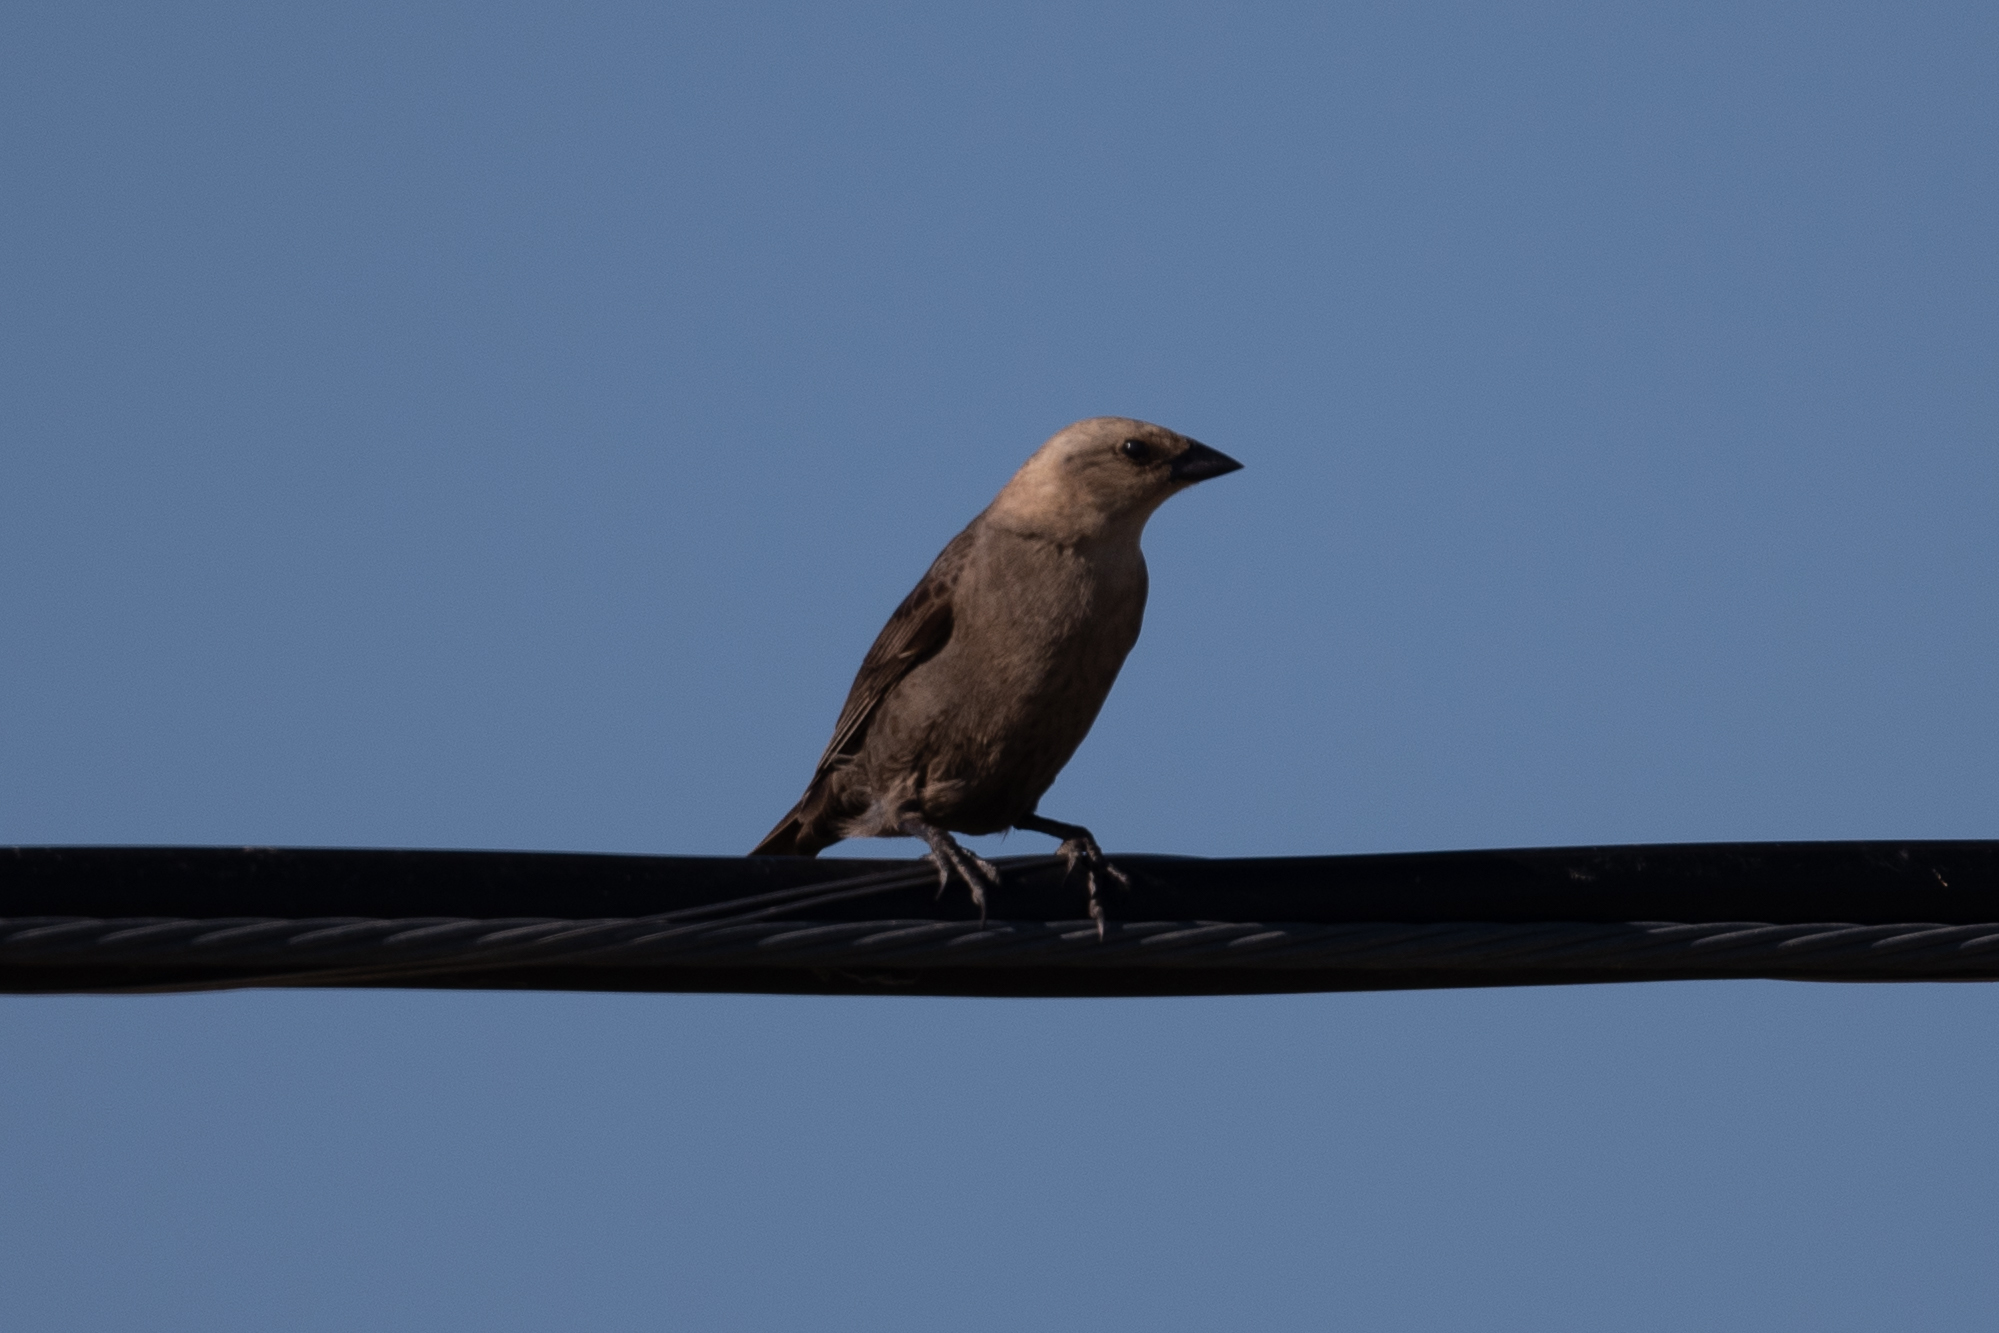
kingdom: Animalia
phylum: Chordata
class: Aves
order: Passeriformes
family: Icteridae
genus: Molothrus
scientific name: Molothrus ater
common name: Brown-headed cowbird
